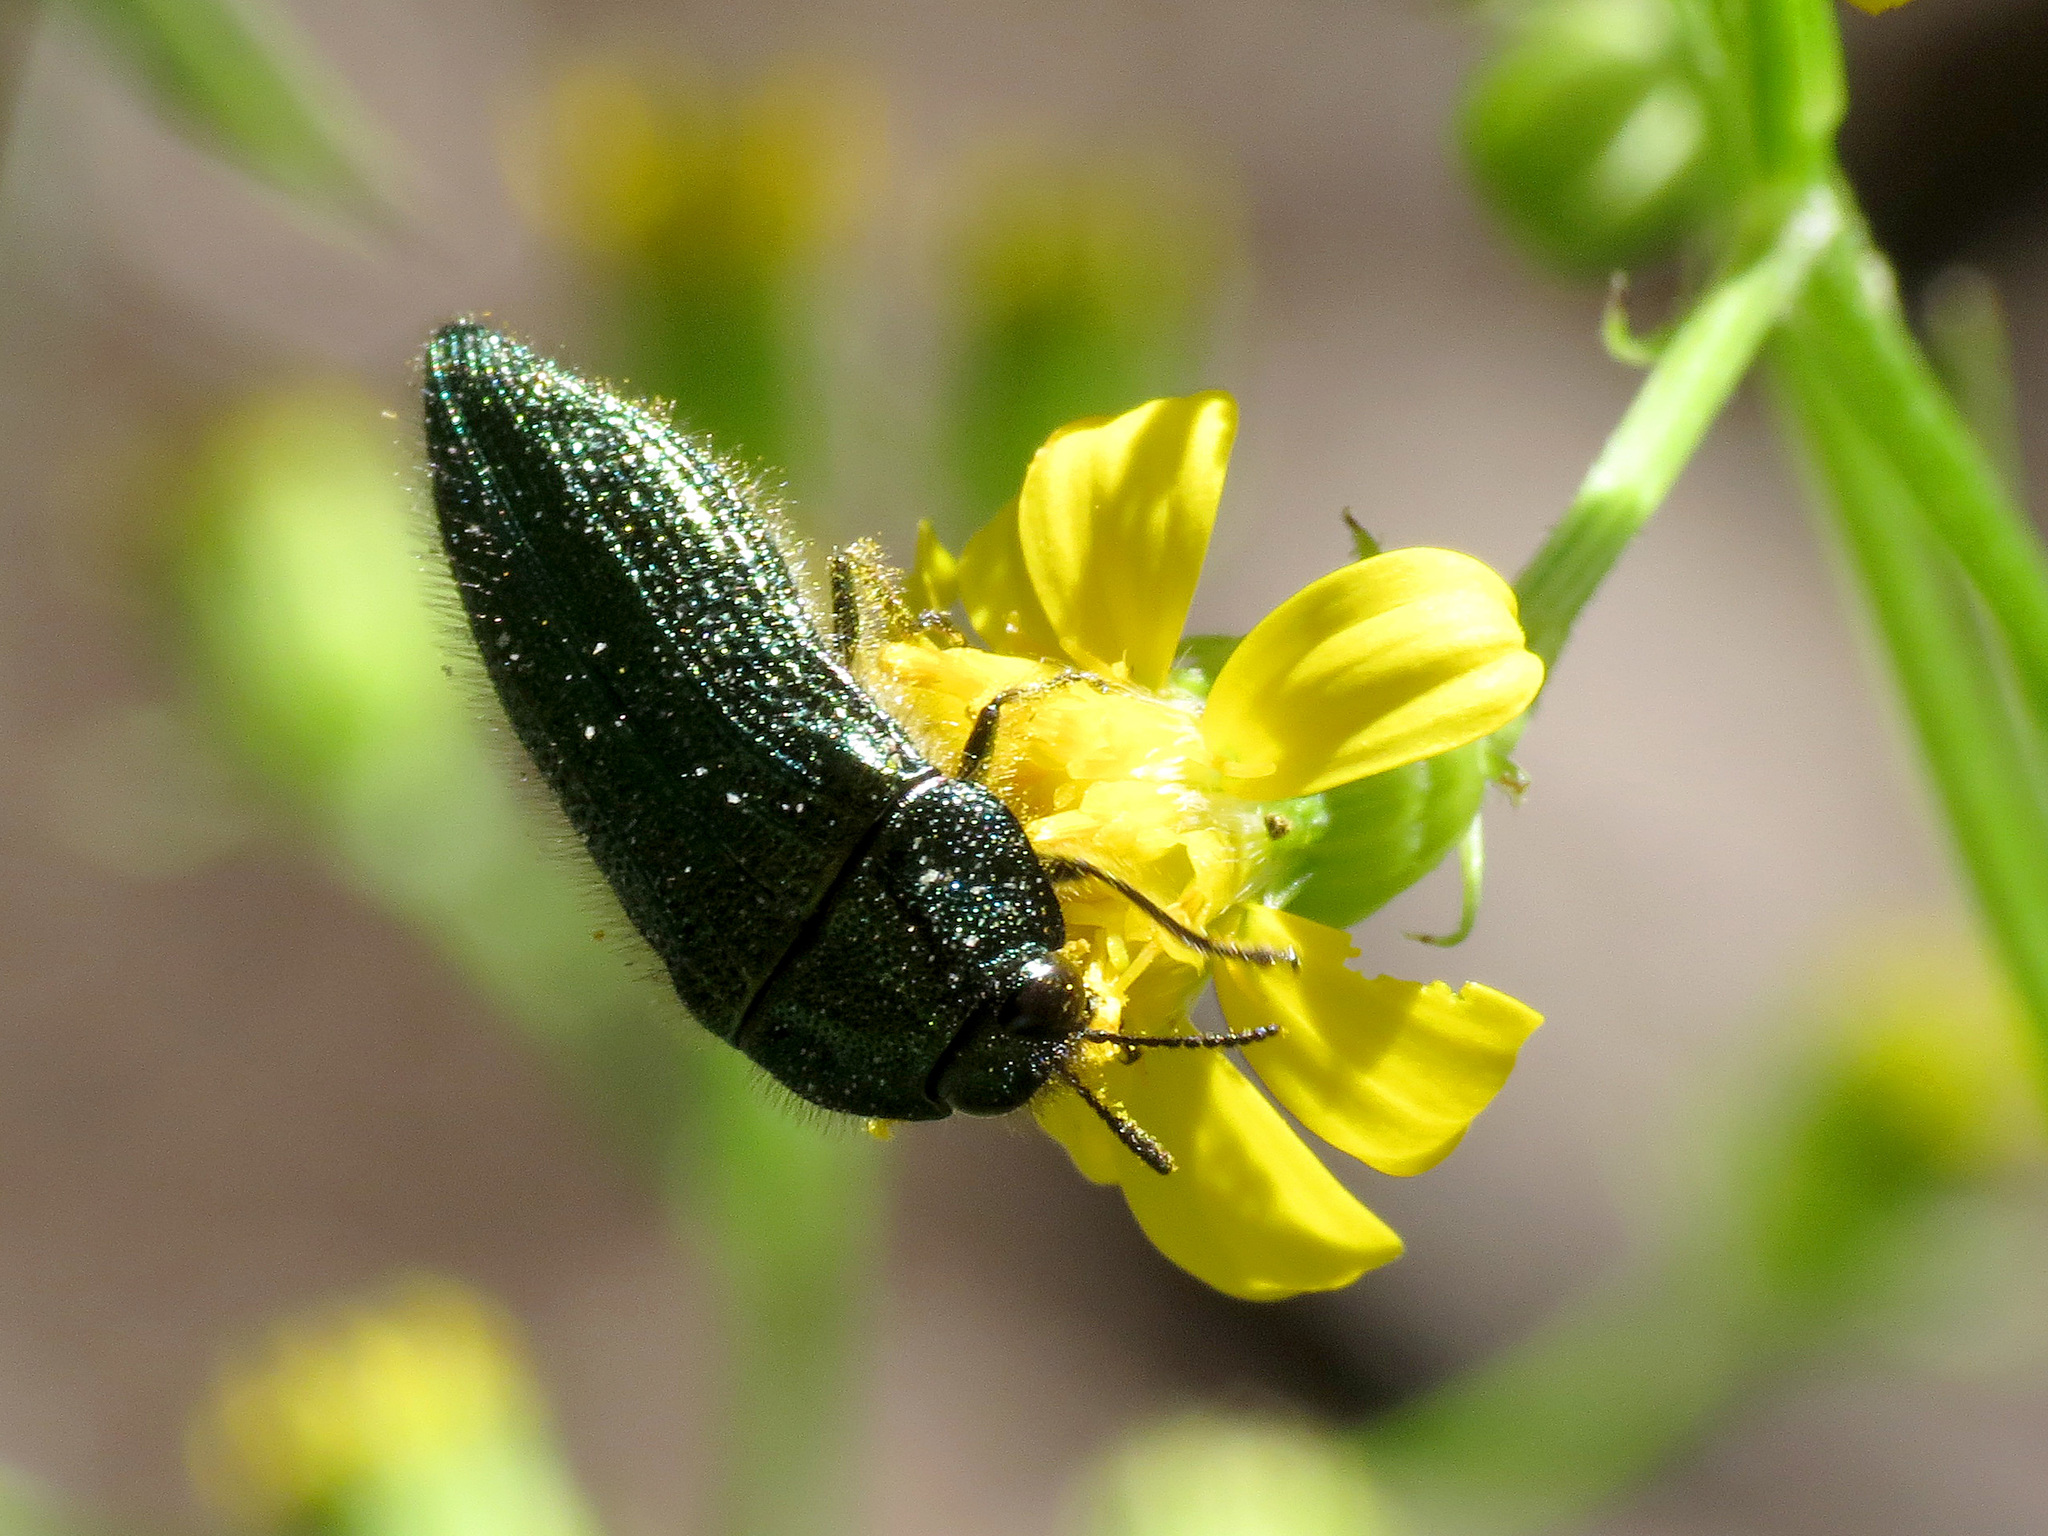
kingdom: Animalia
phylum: Arthropoda
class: Insecta
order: Coleoptera
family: Buprestidae
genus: Acmaeodera
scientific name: Acmaeodera resplendens
